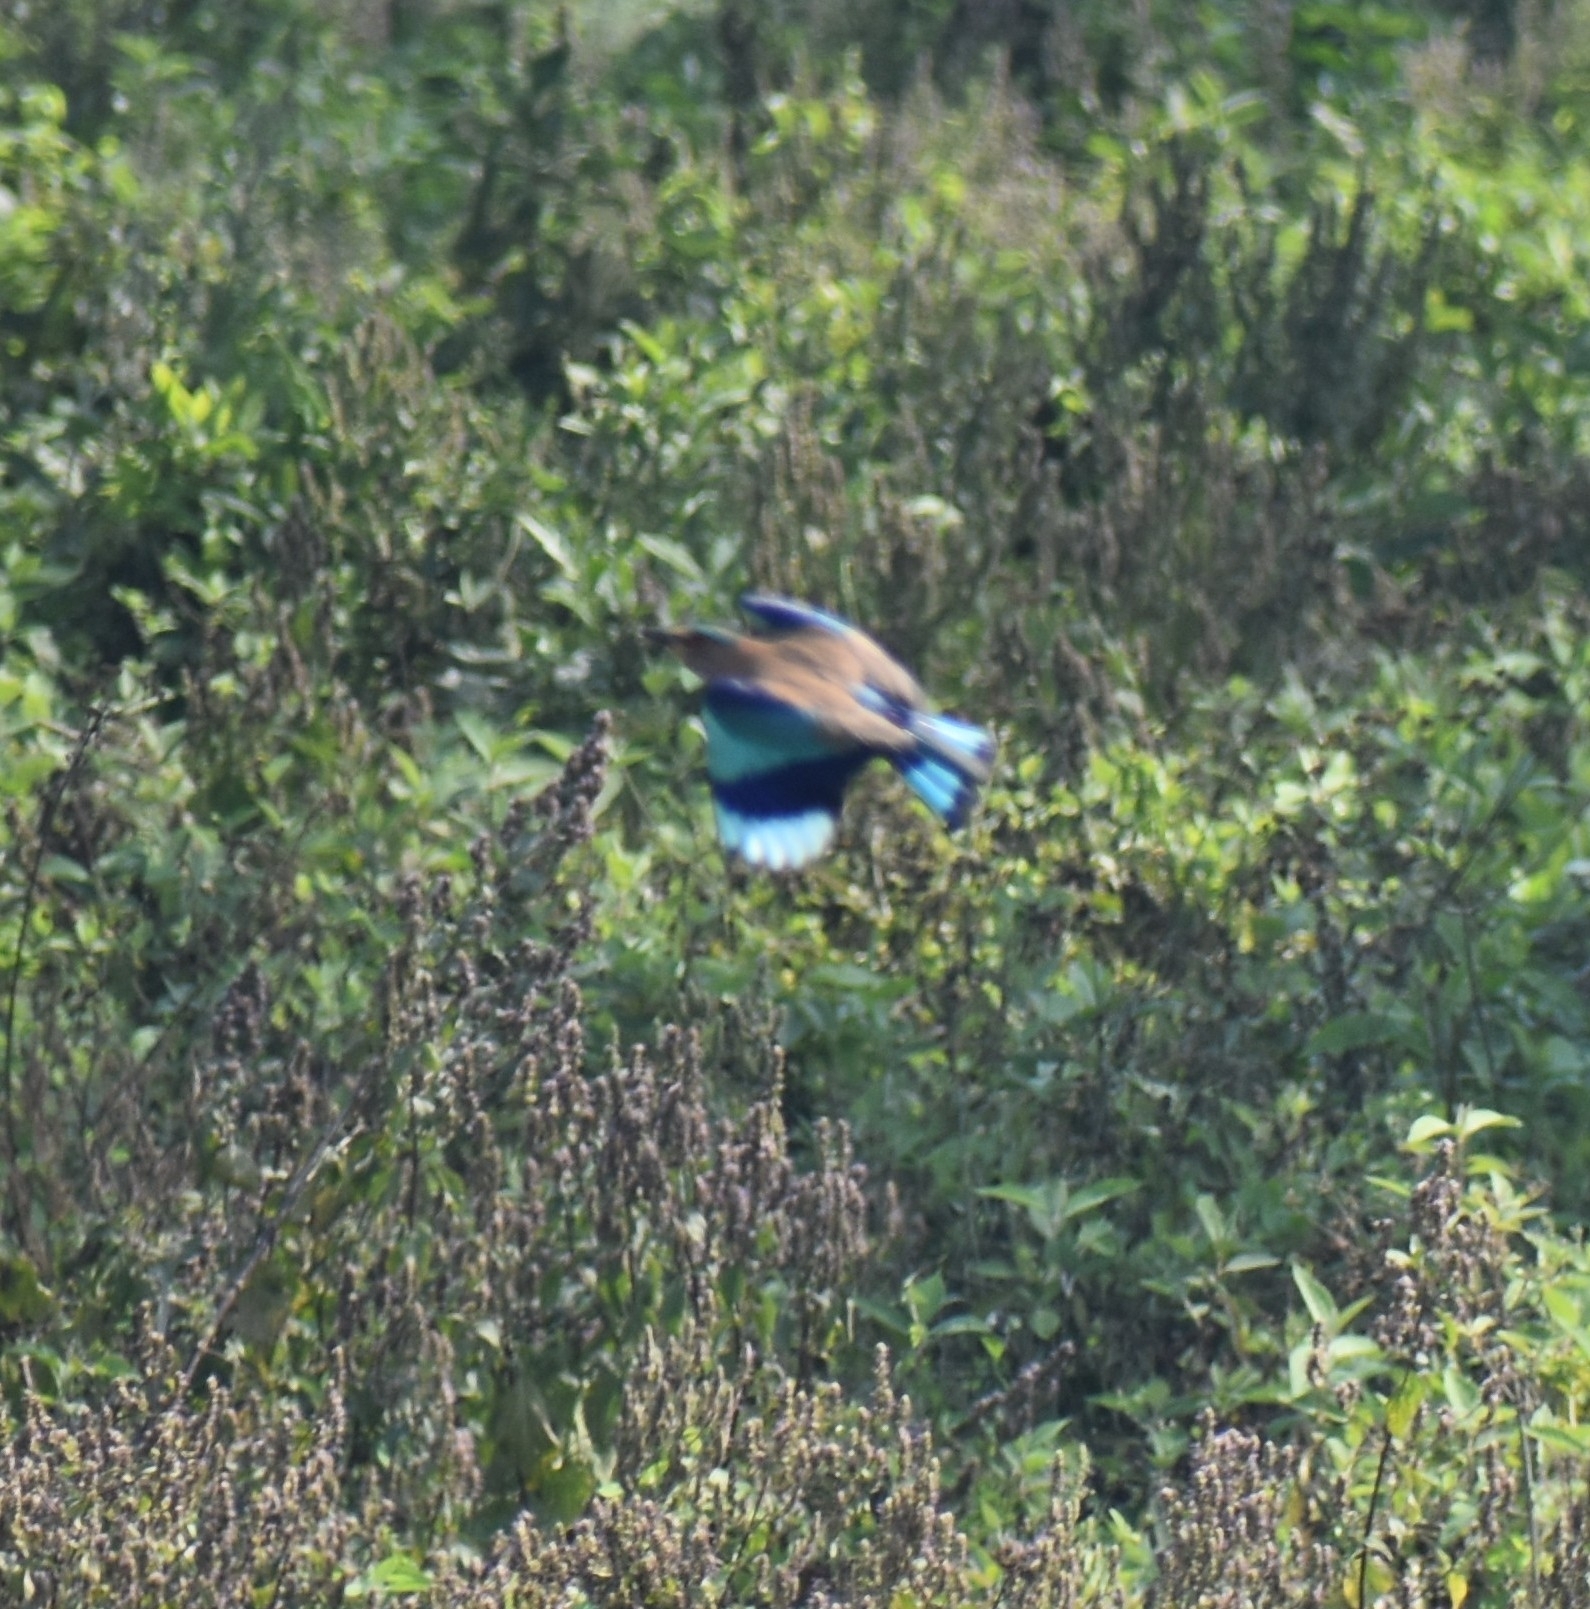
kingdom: Animalia
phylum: Chordata
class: Aves
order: Coraciiformes
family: Coraciidae
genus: Coracias
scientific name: Coracias benghalensis
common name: Indian roller
